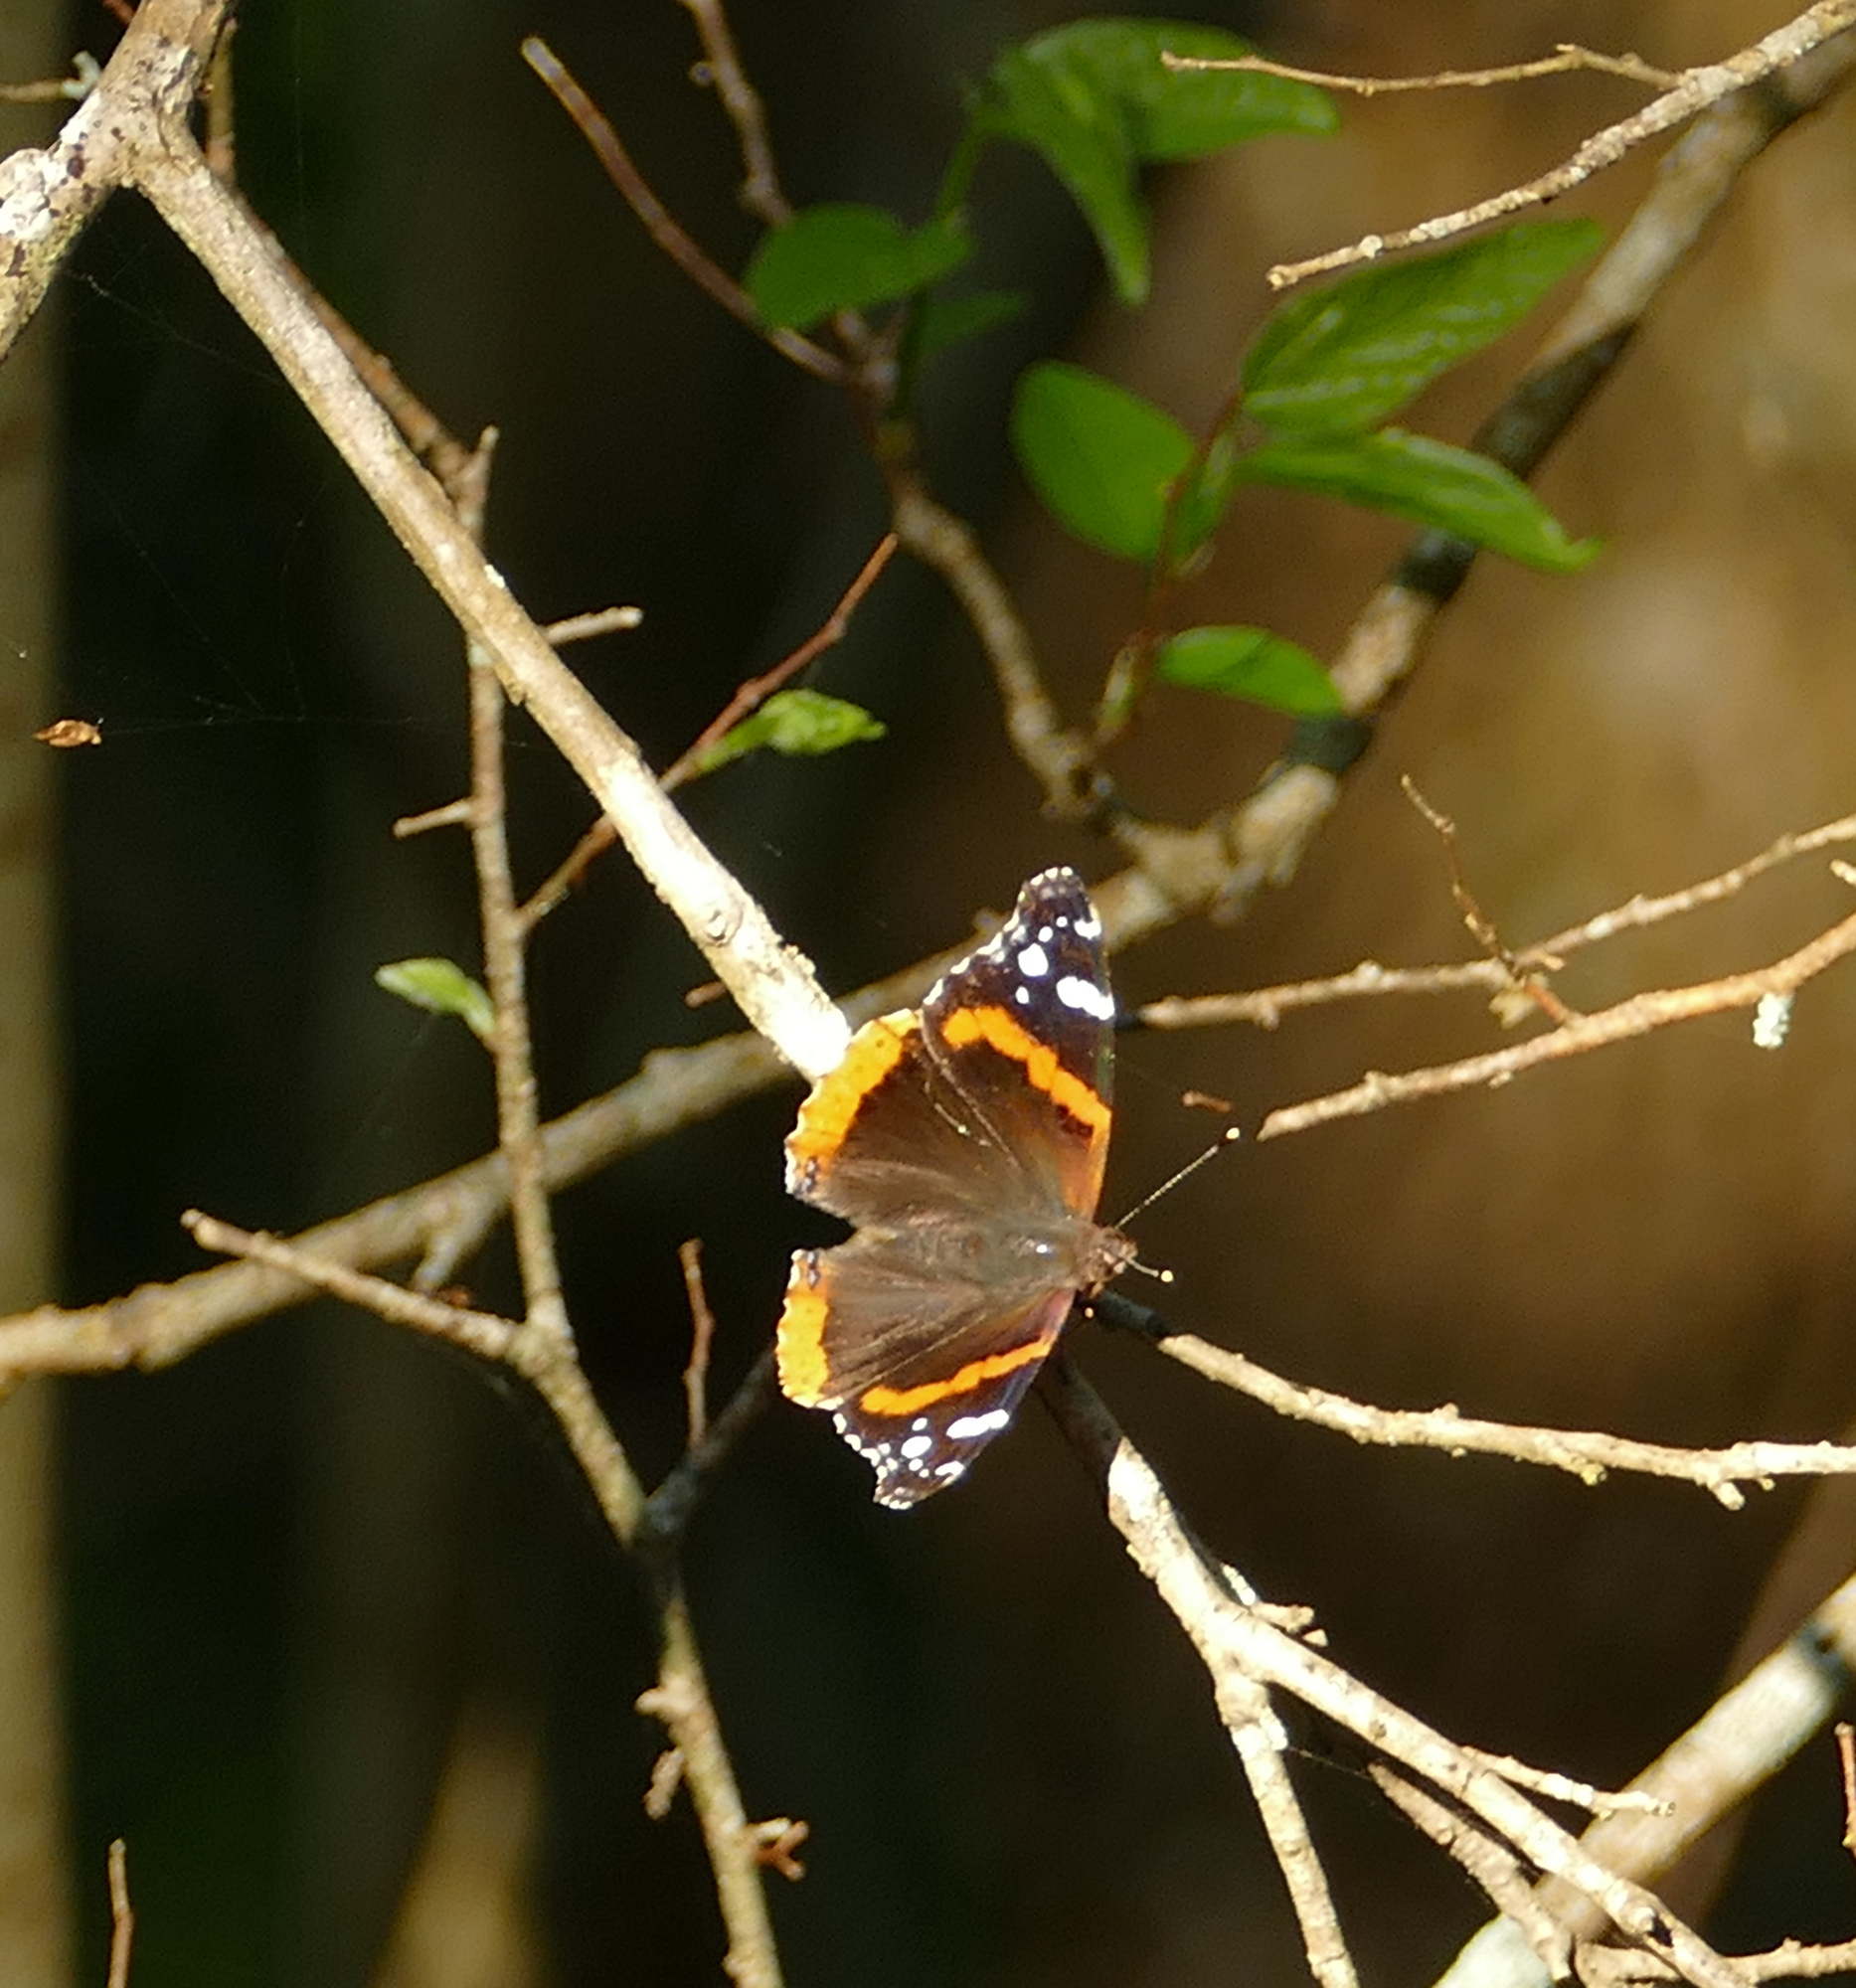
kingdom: Animalia
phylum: Arthropoda
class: Insecta
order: Lepidoptera
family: Nymphalidae
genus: Vanessa
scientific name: Vanessa atalanta
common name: Red admiral
